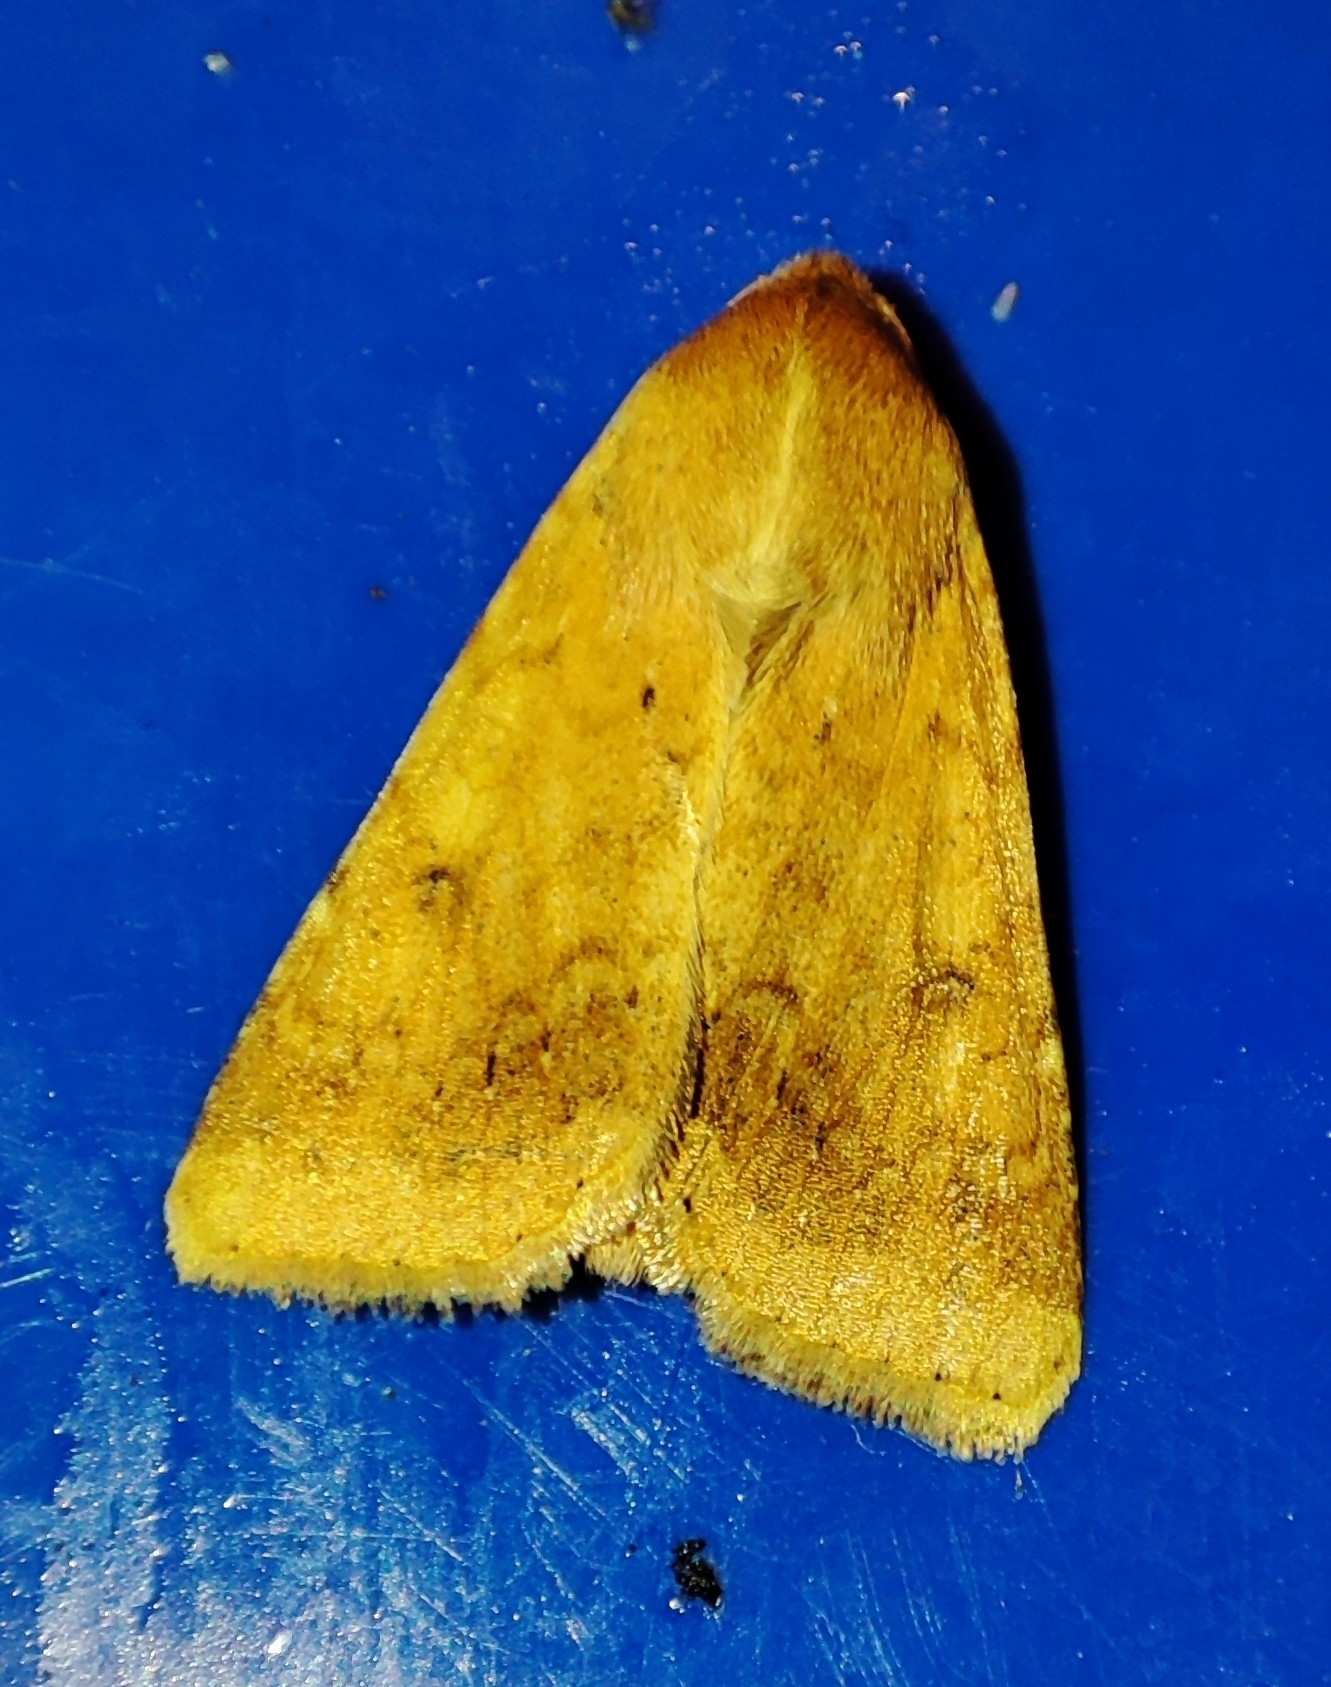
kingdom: Animalia
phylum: Arthropoda
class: Insecta
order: Lepidoptera
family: Noctuidae
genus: Helicoverpa
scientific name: Helicoverpa armigera
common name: Cotton bollworm
